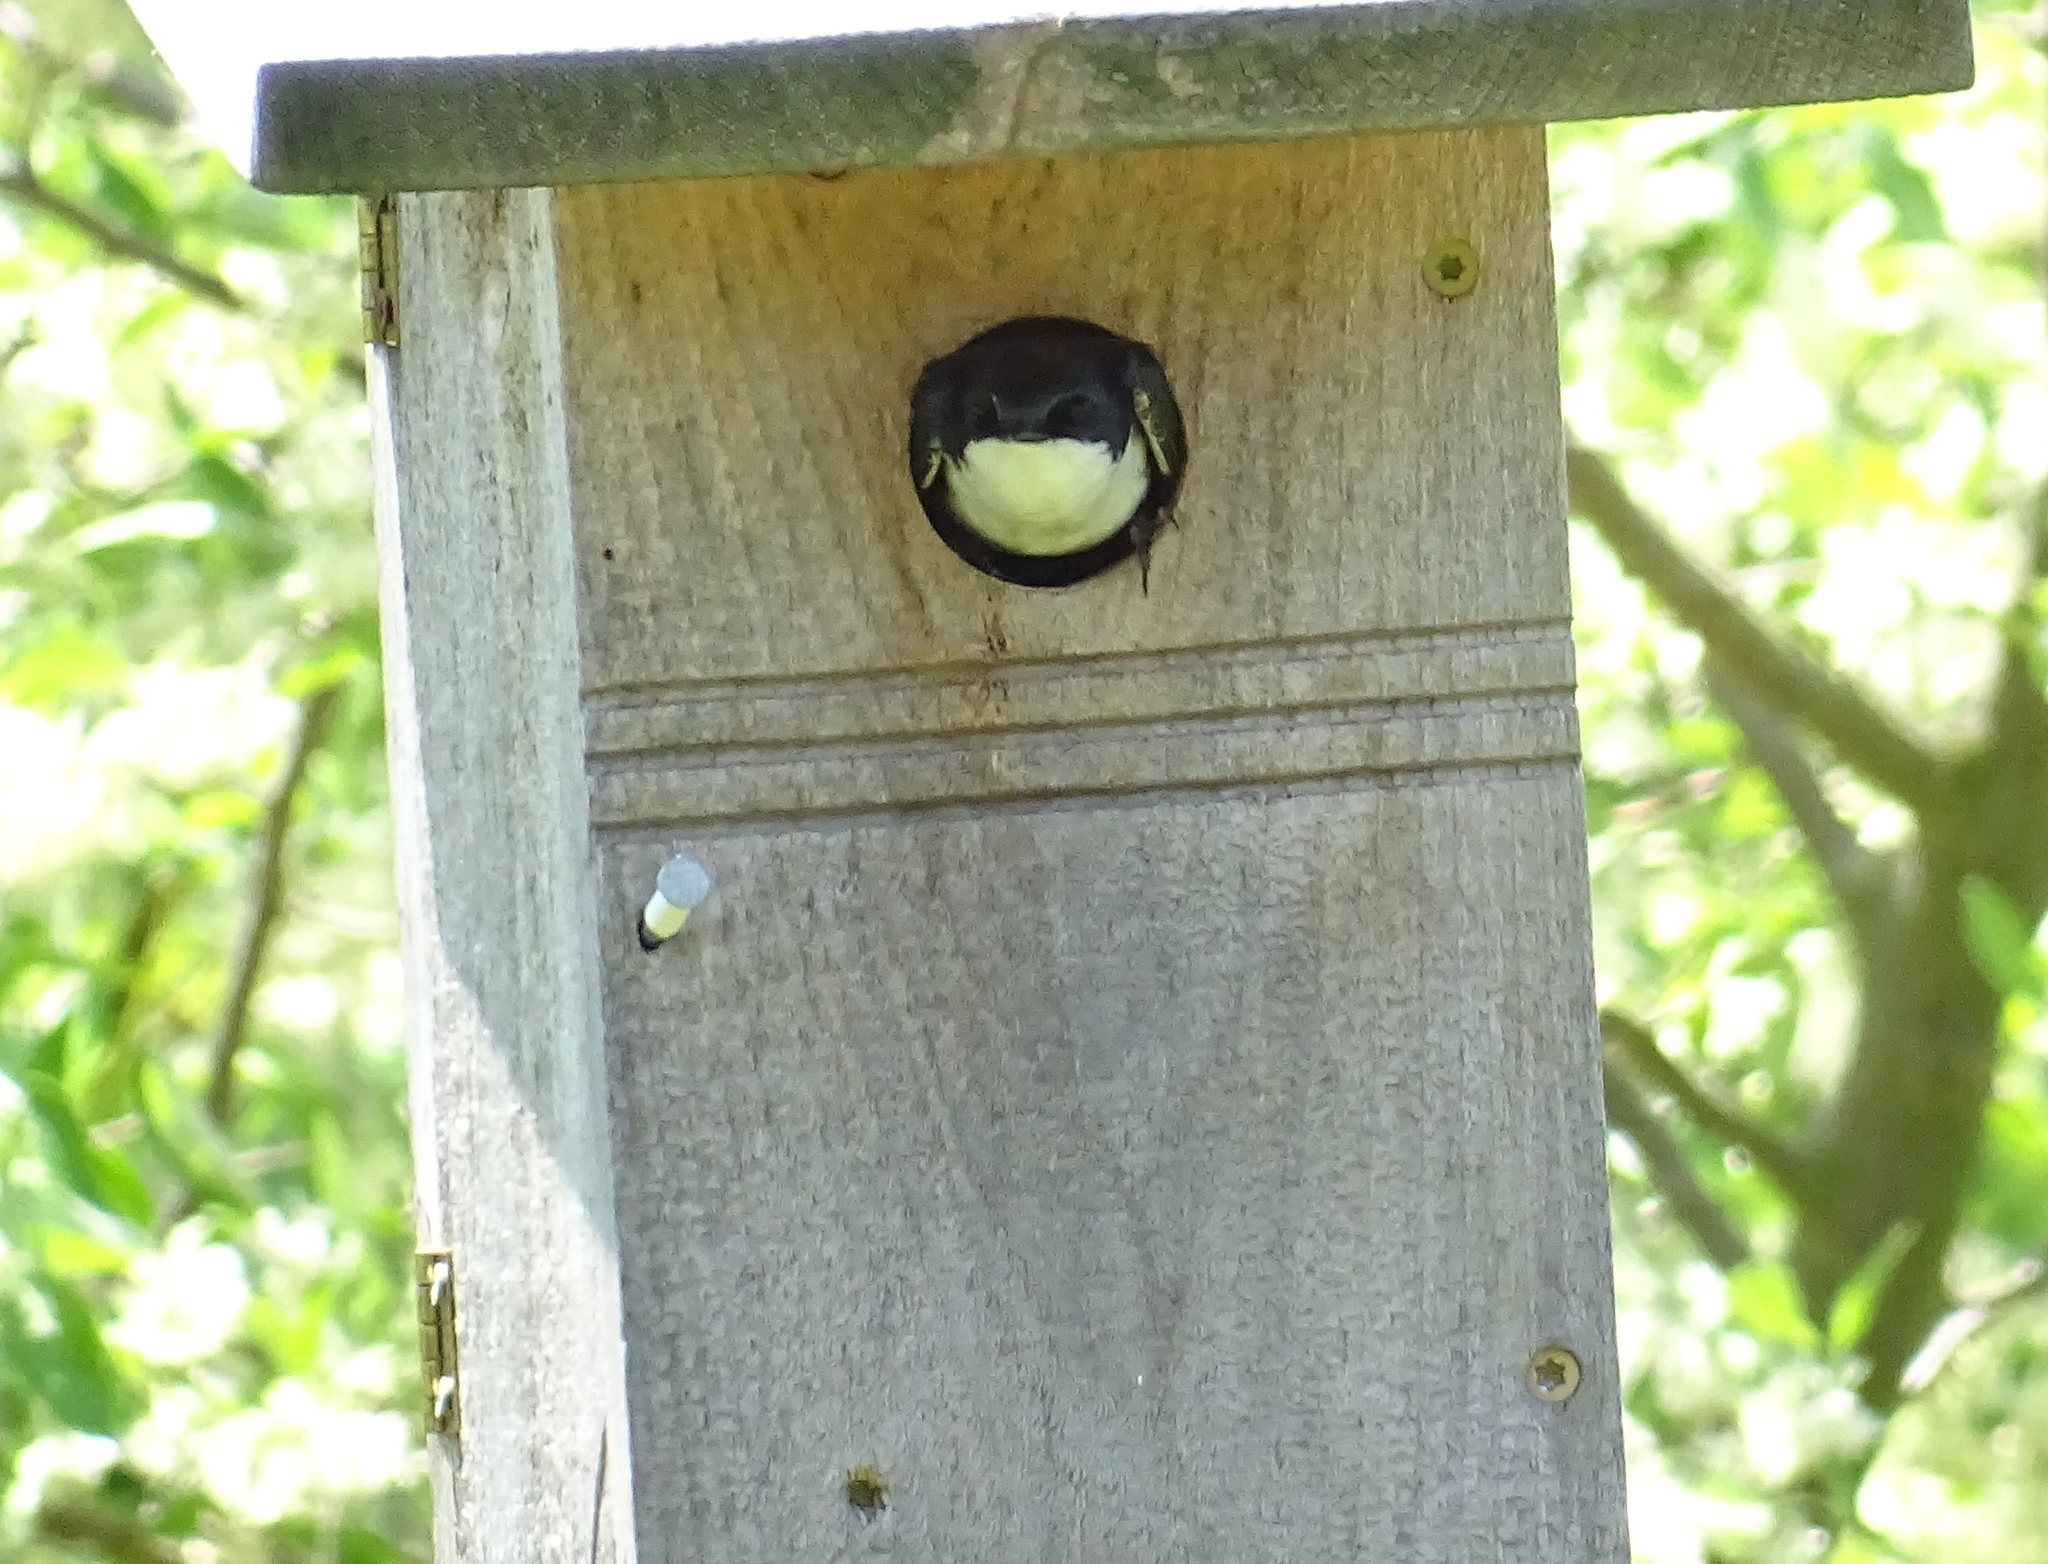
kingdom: Animalia
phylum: Chordata
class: Aves
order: Passeriformes
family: Hirundinidae
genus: Tachycineta
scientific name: Tachycineta bicolor
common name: Tree swallow
